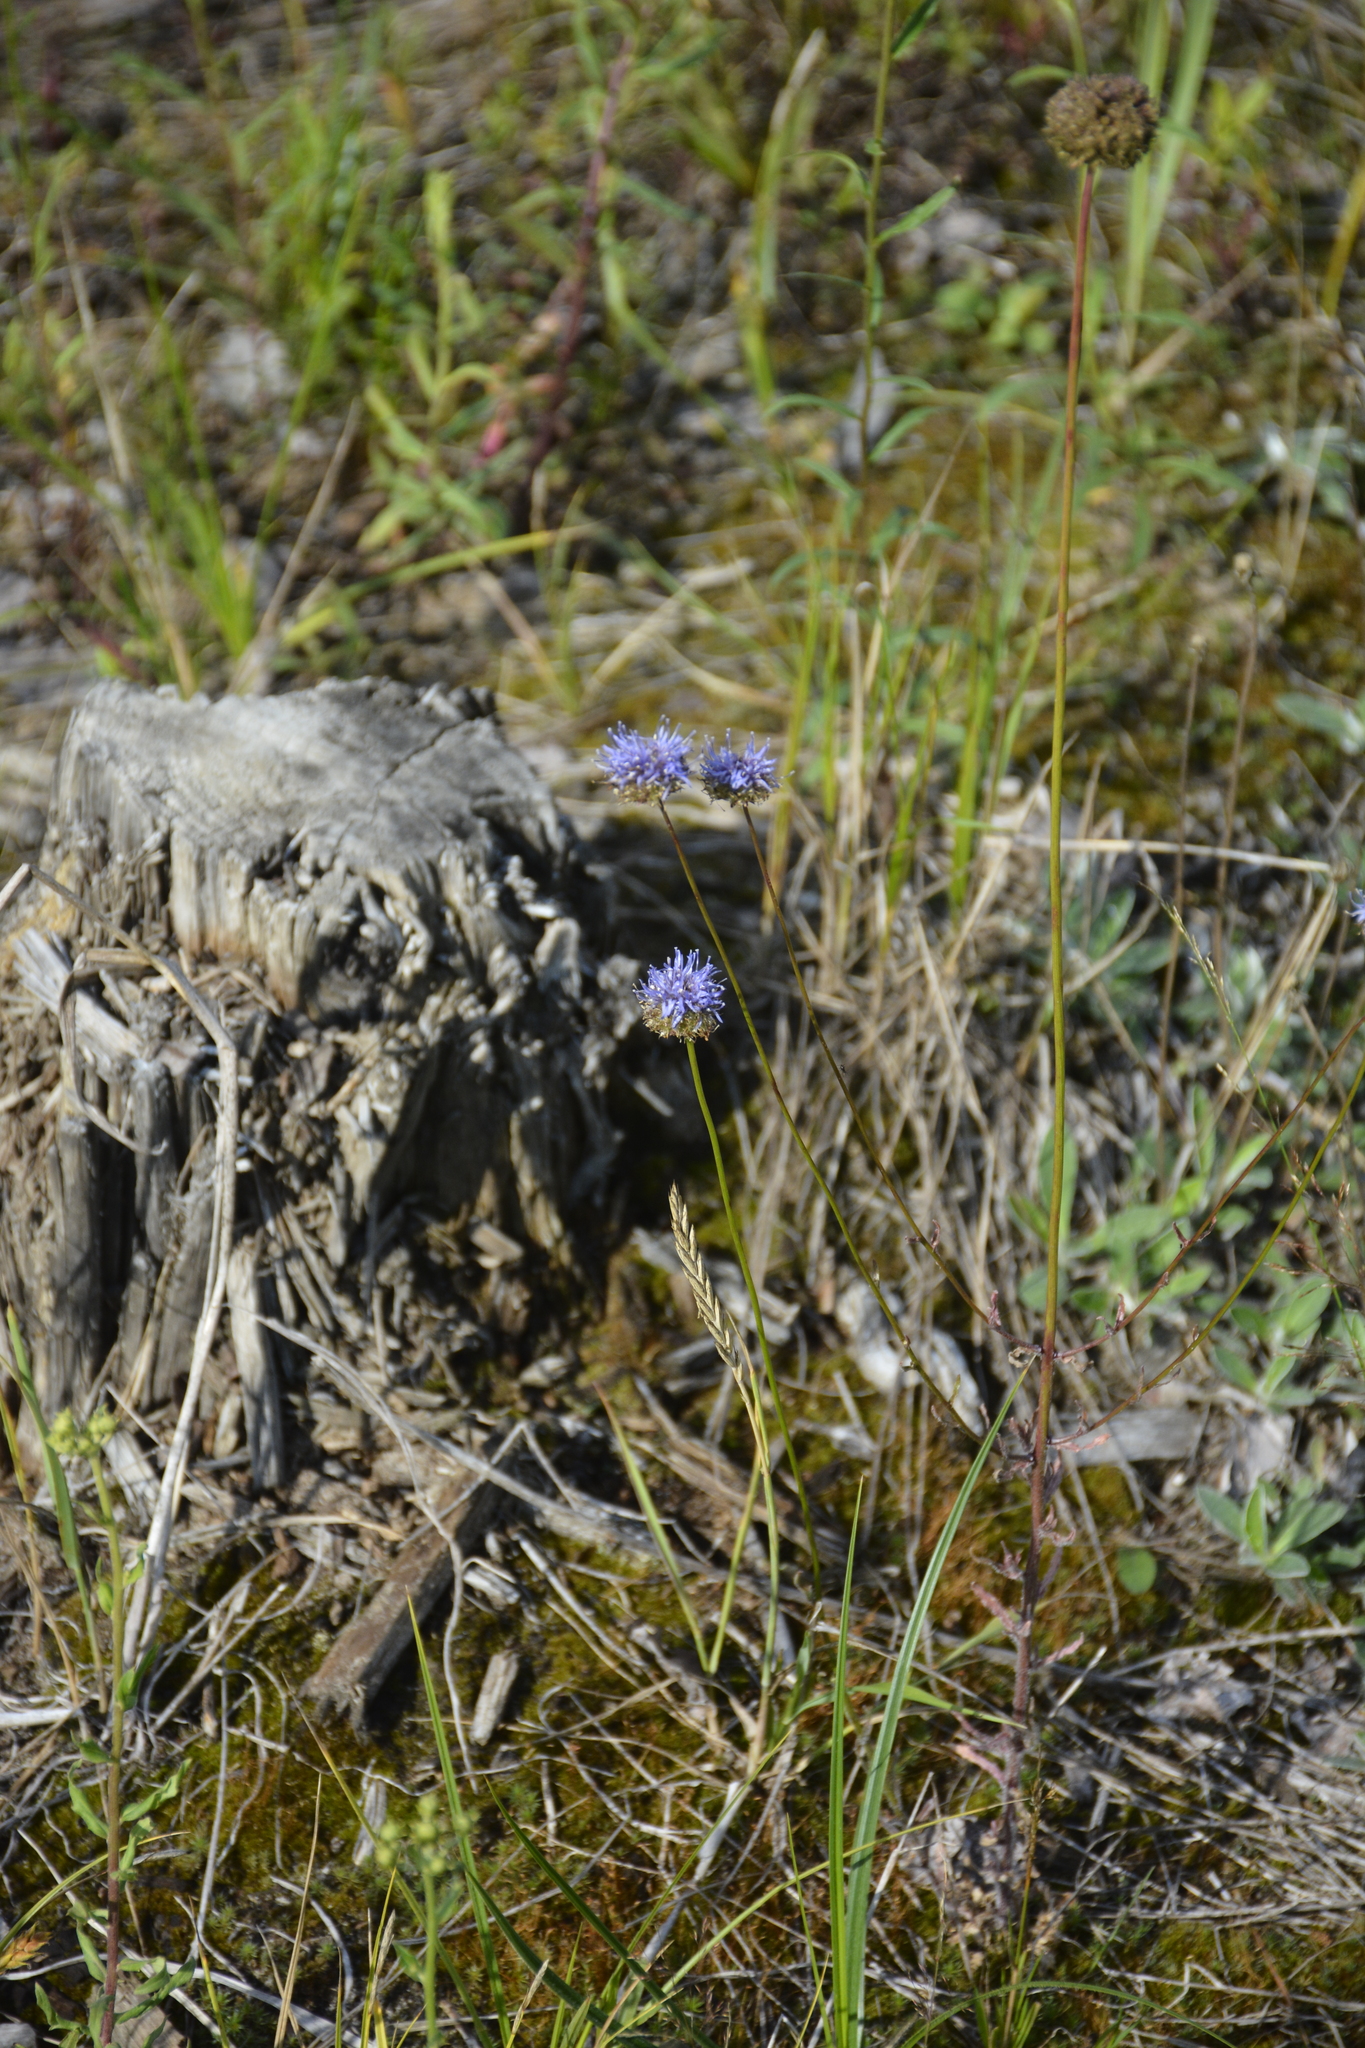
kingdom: Plantae
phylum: Tracheophyta
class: Magnoliopsida
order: Asterales
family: Campanulaceae
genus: Jasione
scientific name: Jasione montana
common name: Sheep's-bit
